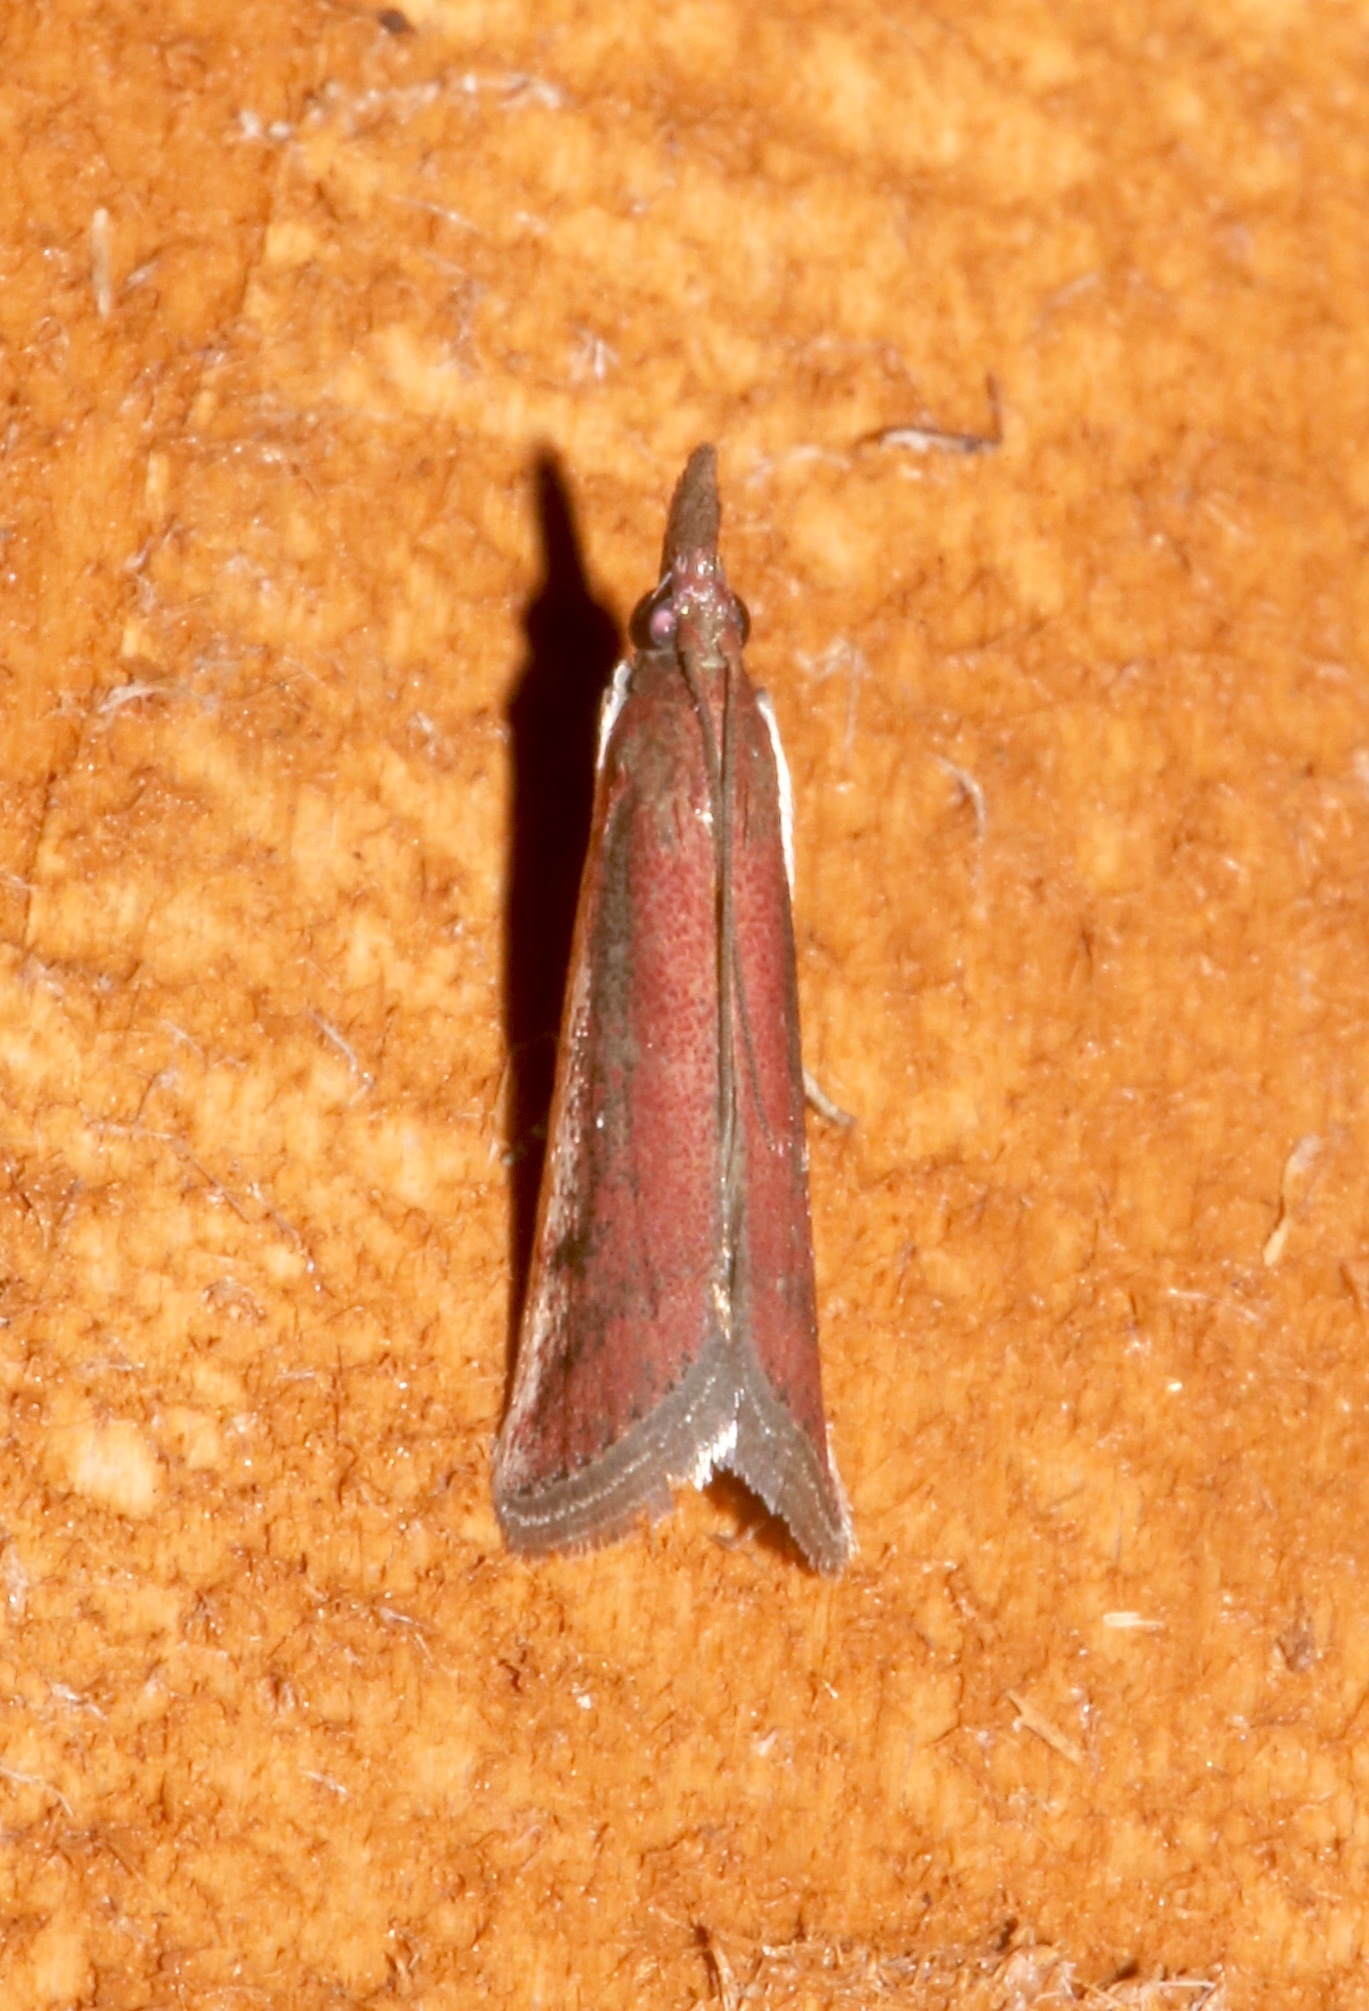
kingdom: Animalia
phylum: Arthropoda
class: Insecta
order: Lepidoptera
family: Pyralidae
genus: Atascosa
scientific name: Atascosa glareosella
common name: Rosy atascosa moth
